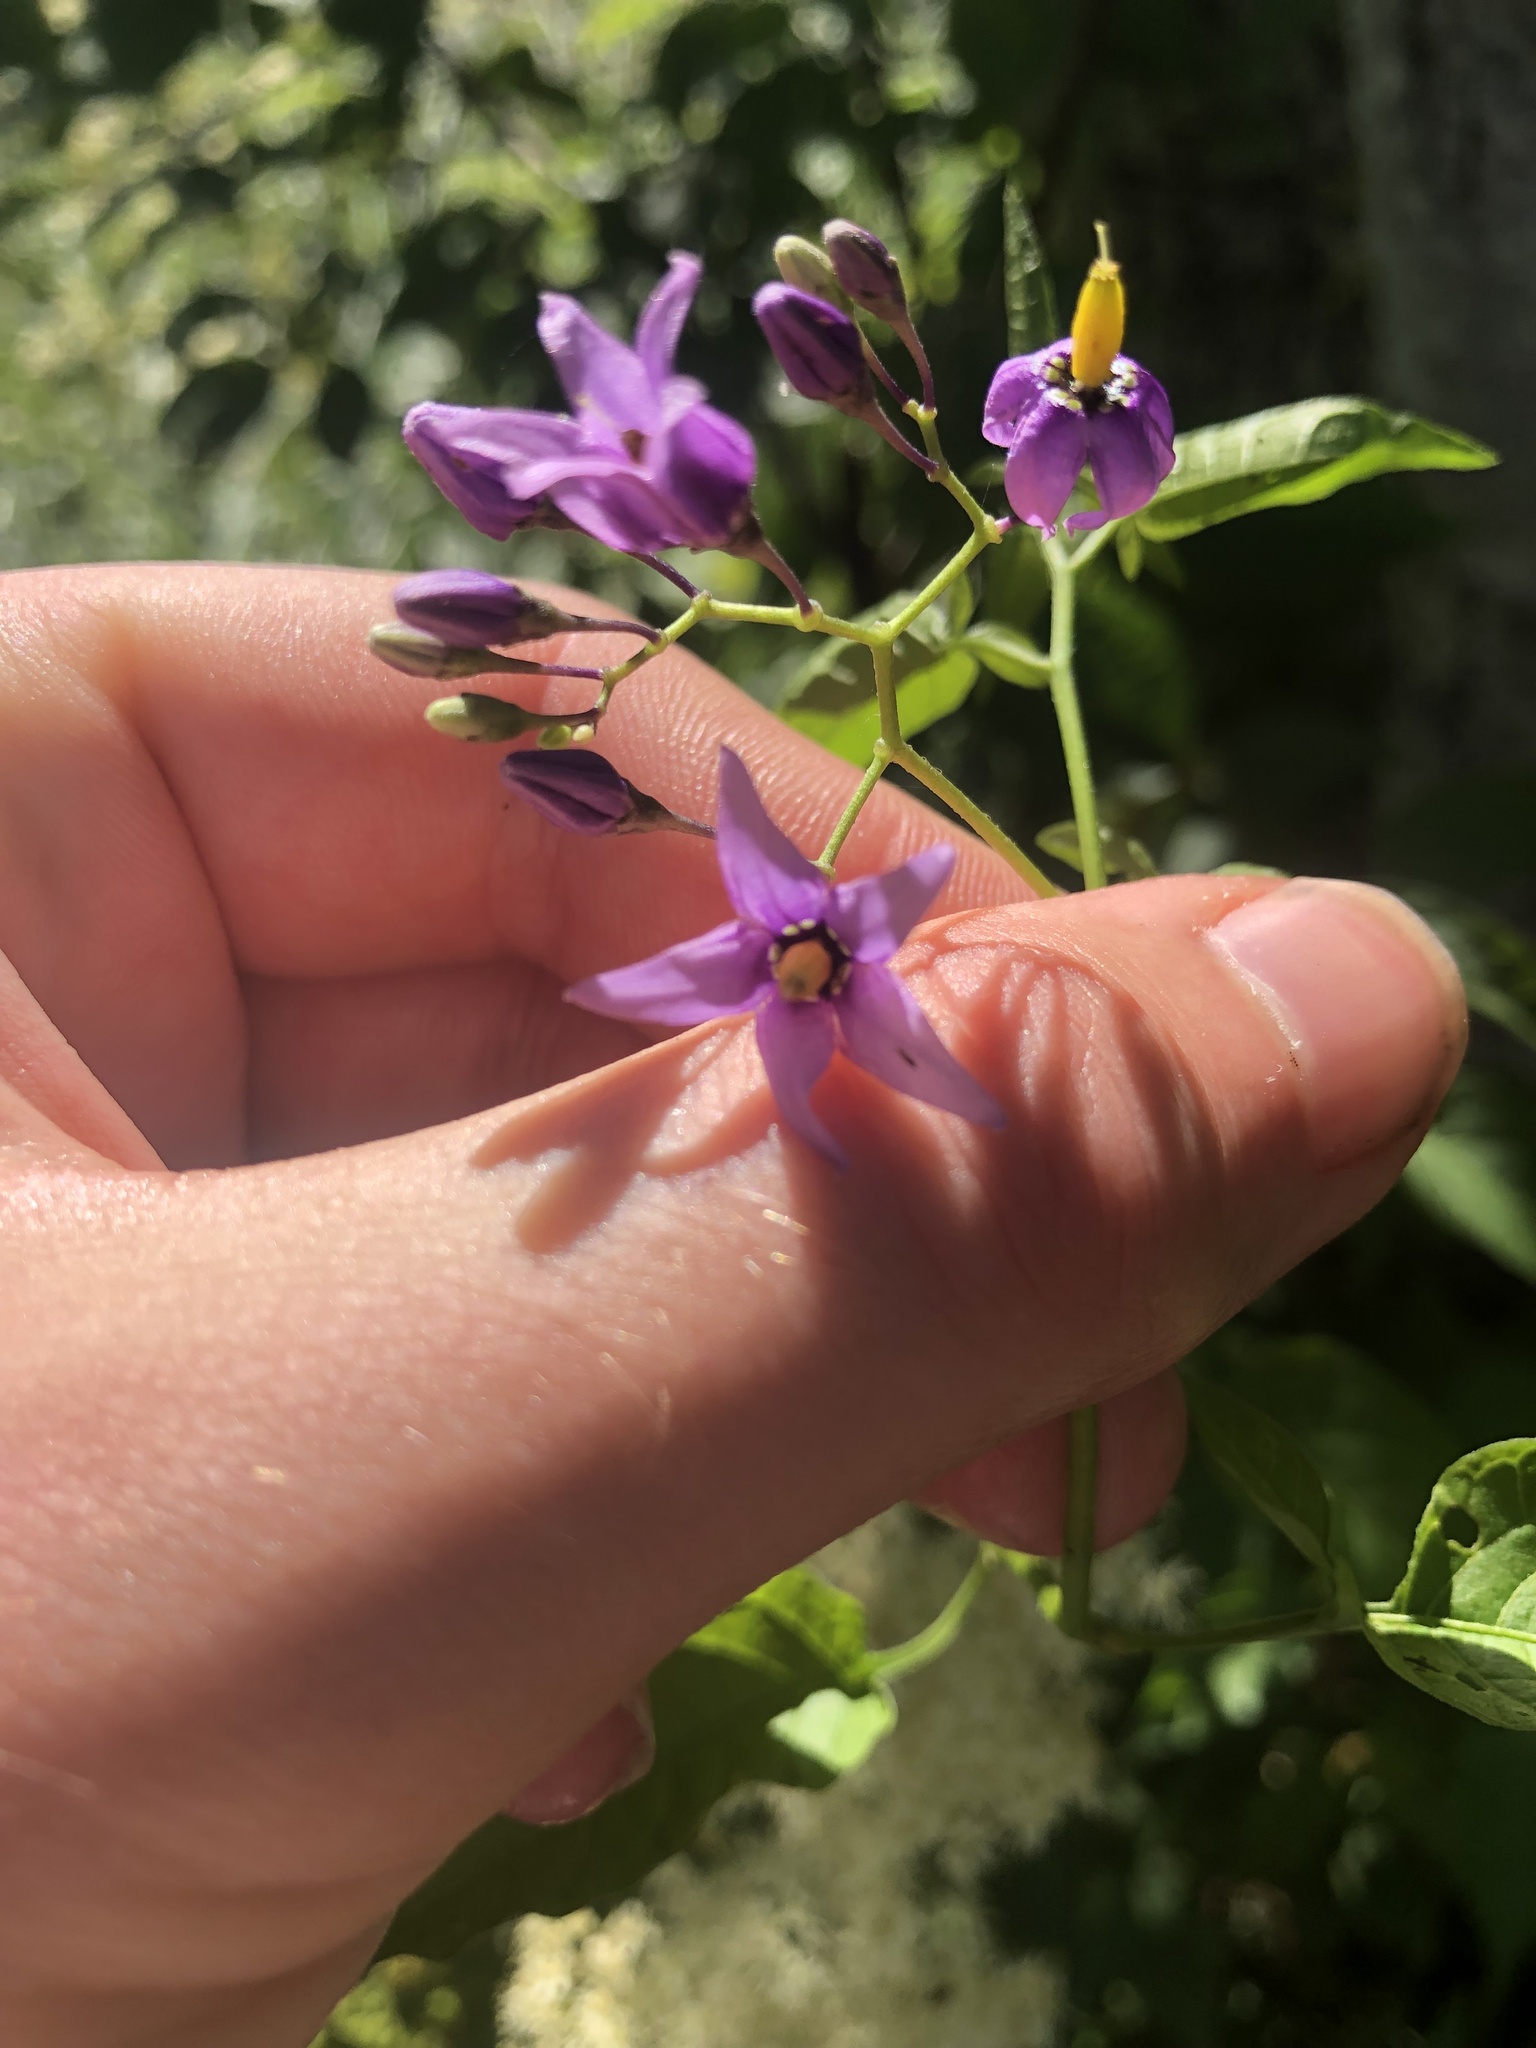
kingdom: Plantae
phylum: Tracheophyta
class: Magnoliopsida
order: Solanales
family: Solanaceae
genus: Solanum
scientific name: Solanum dulcamara
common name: Climbing nightshade
